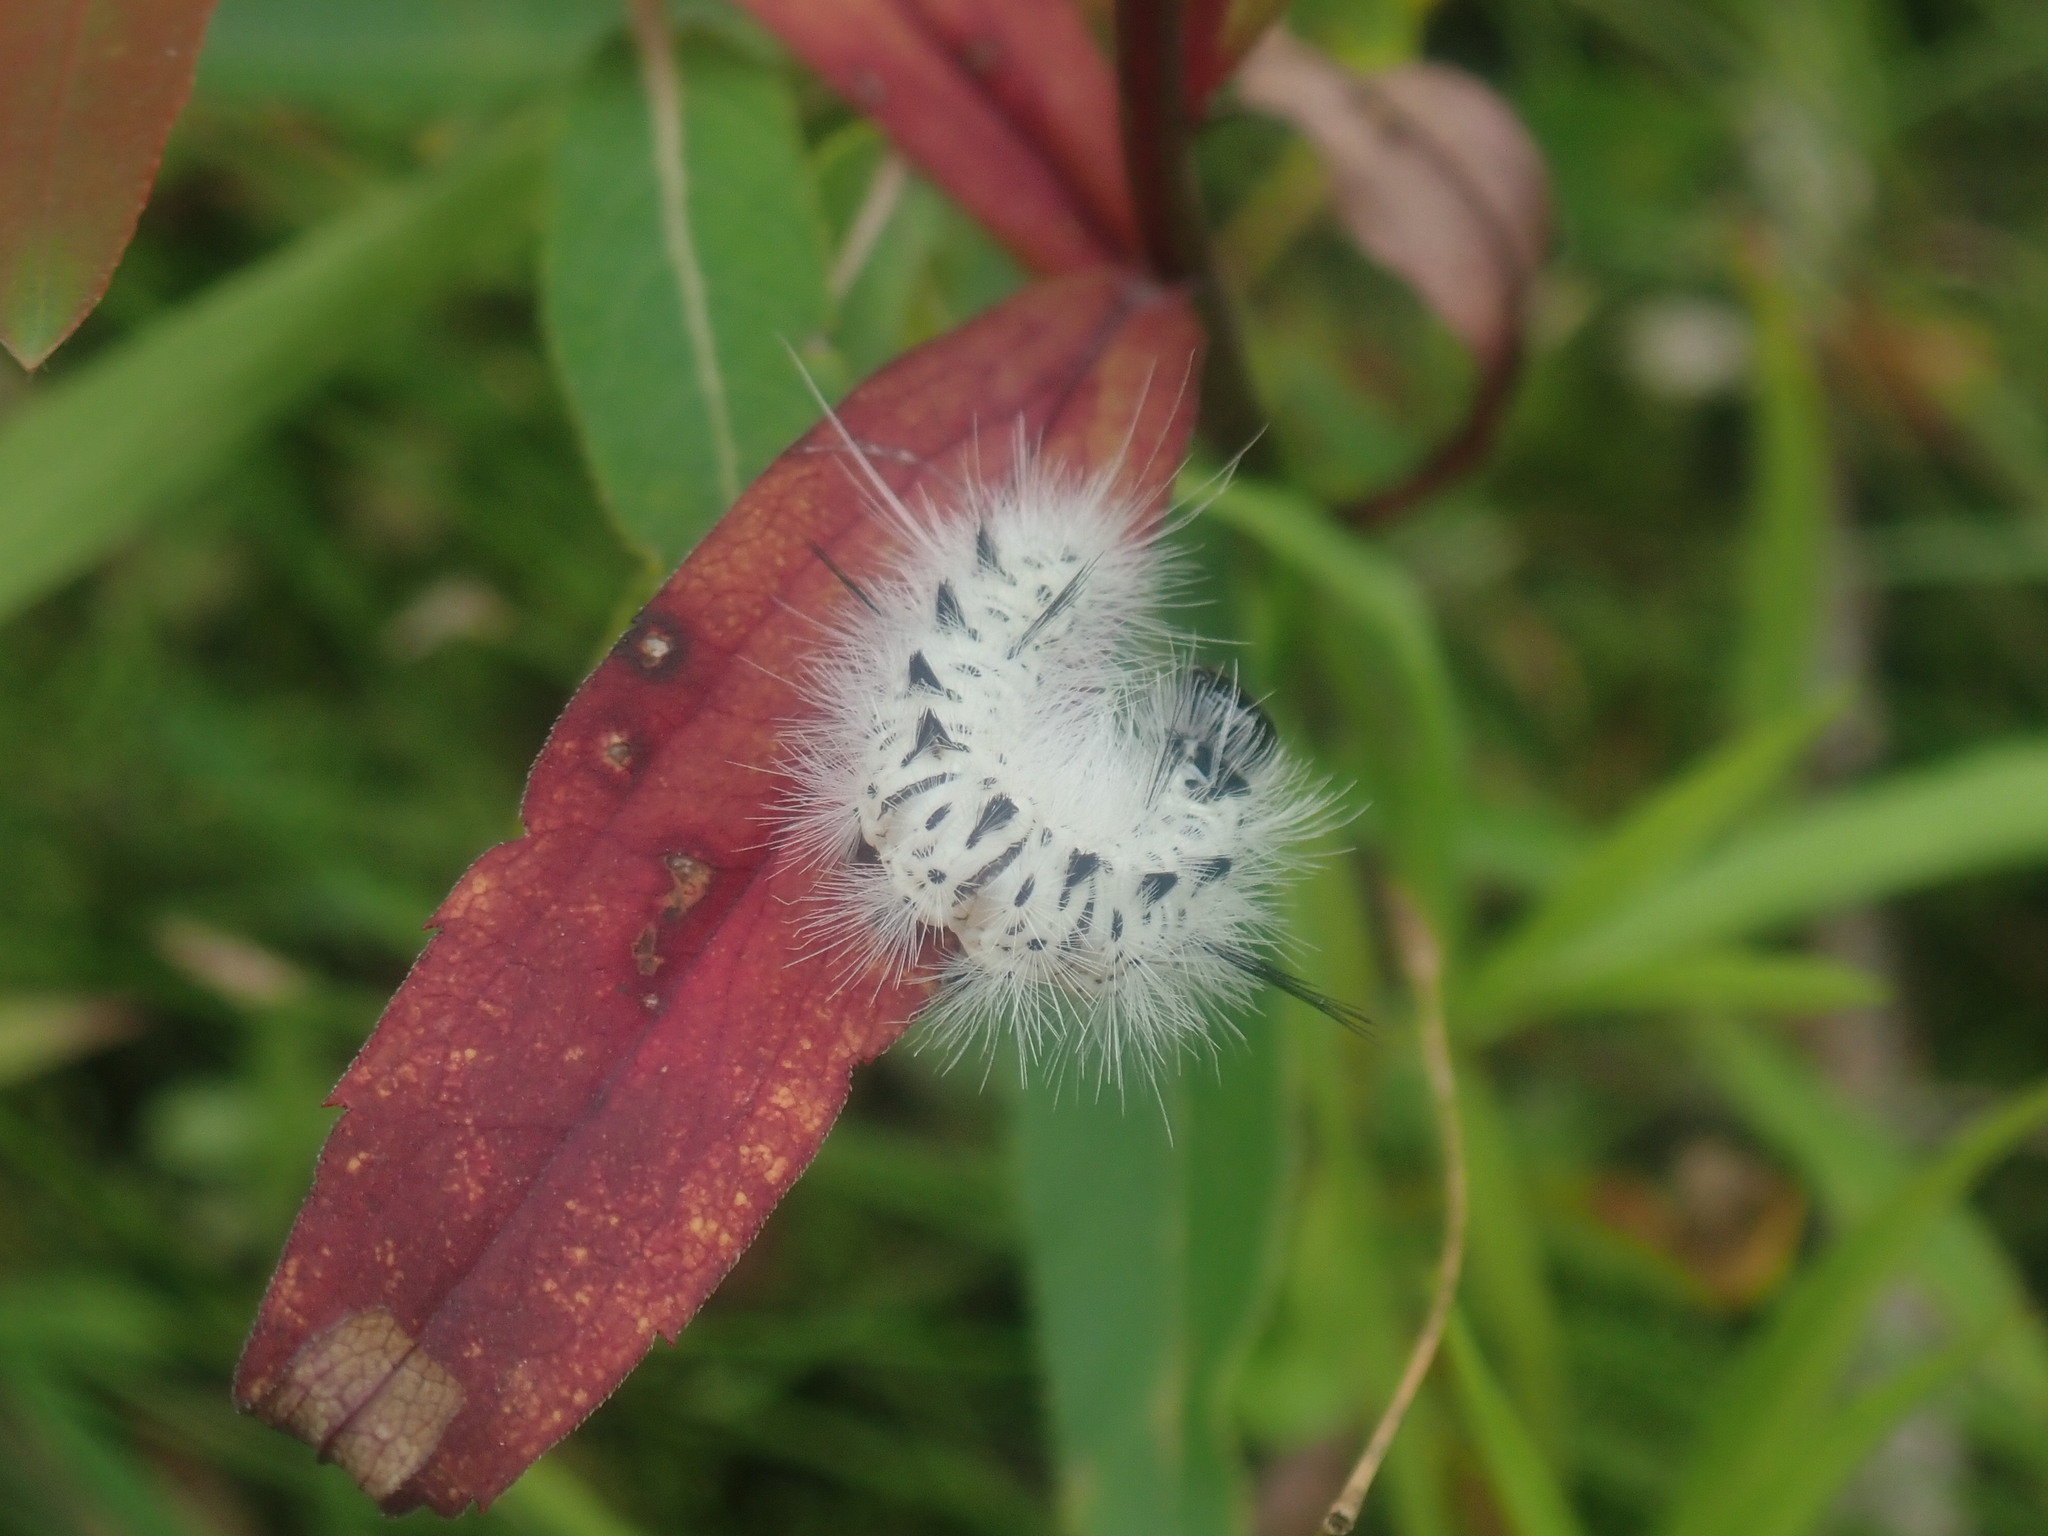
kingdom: Animalia
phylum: Arthropoda
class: Insecta
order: Lepidoptera
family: Erebidae
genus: Lophocampa
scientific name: Lophocampa caryae
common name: Hickory tussock moth
